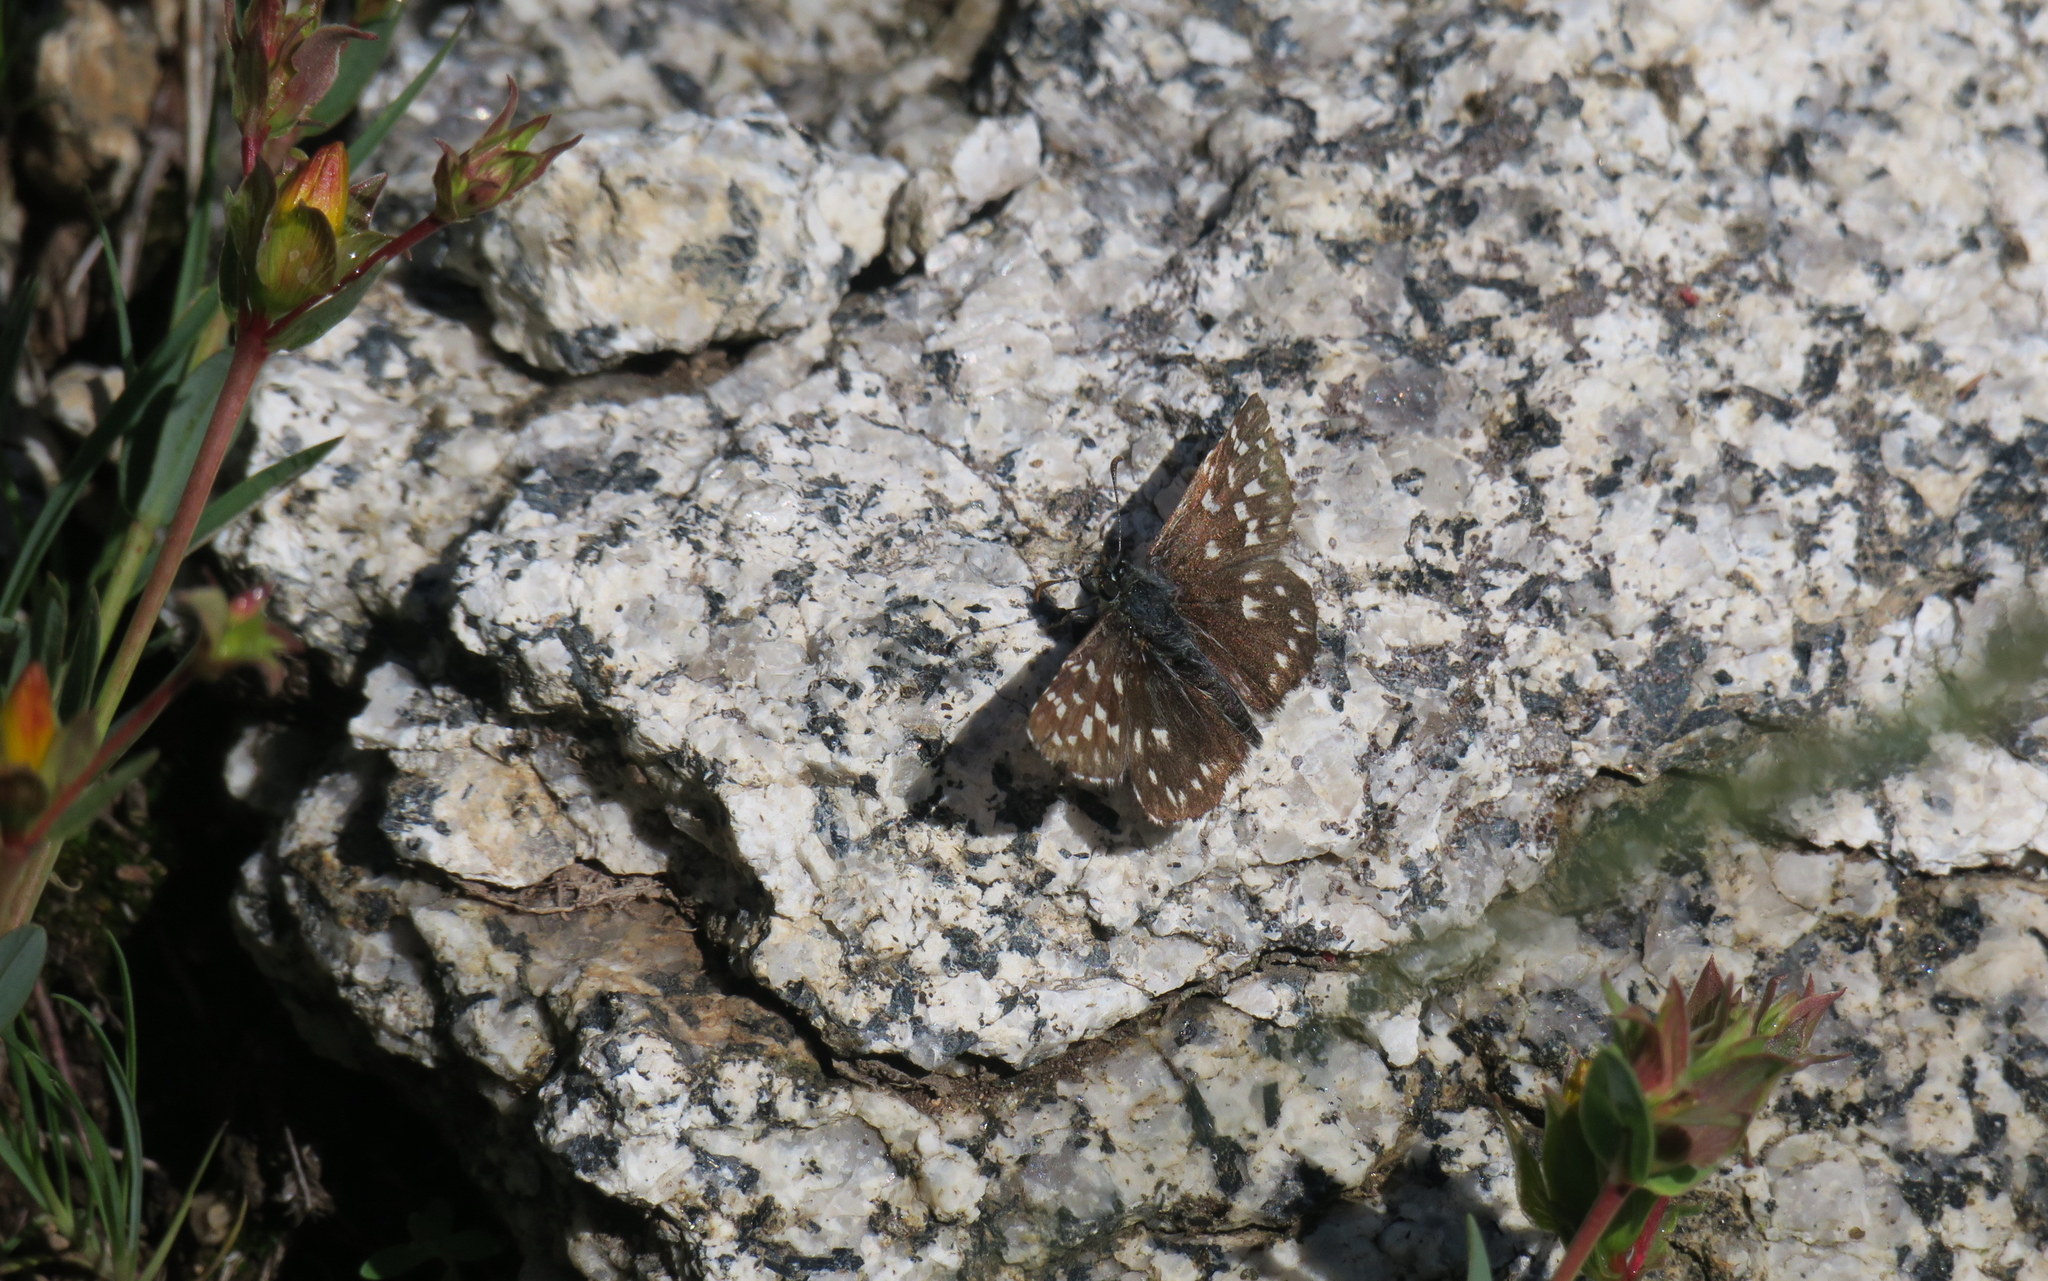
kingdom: Animalia
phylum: Arthropoda
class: Insecta
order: Lepidoptera
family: Hesperiidae
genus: Pyrgus
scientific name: Pyrgus malvae
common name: Grizzled skipper
